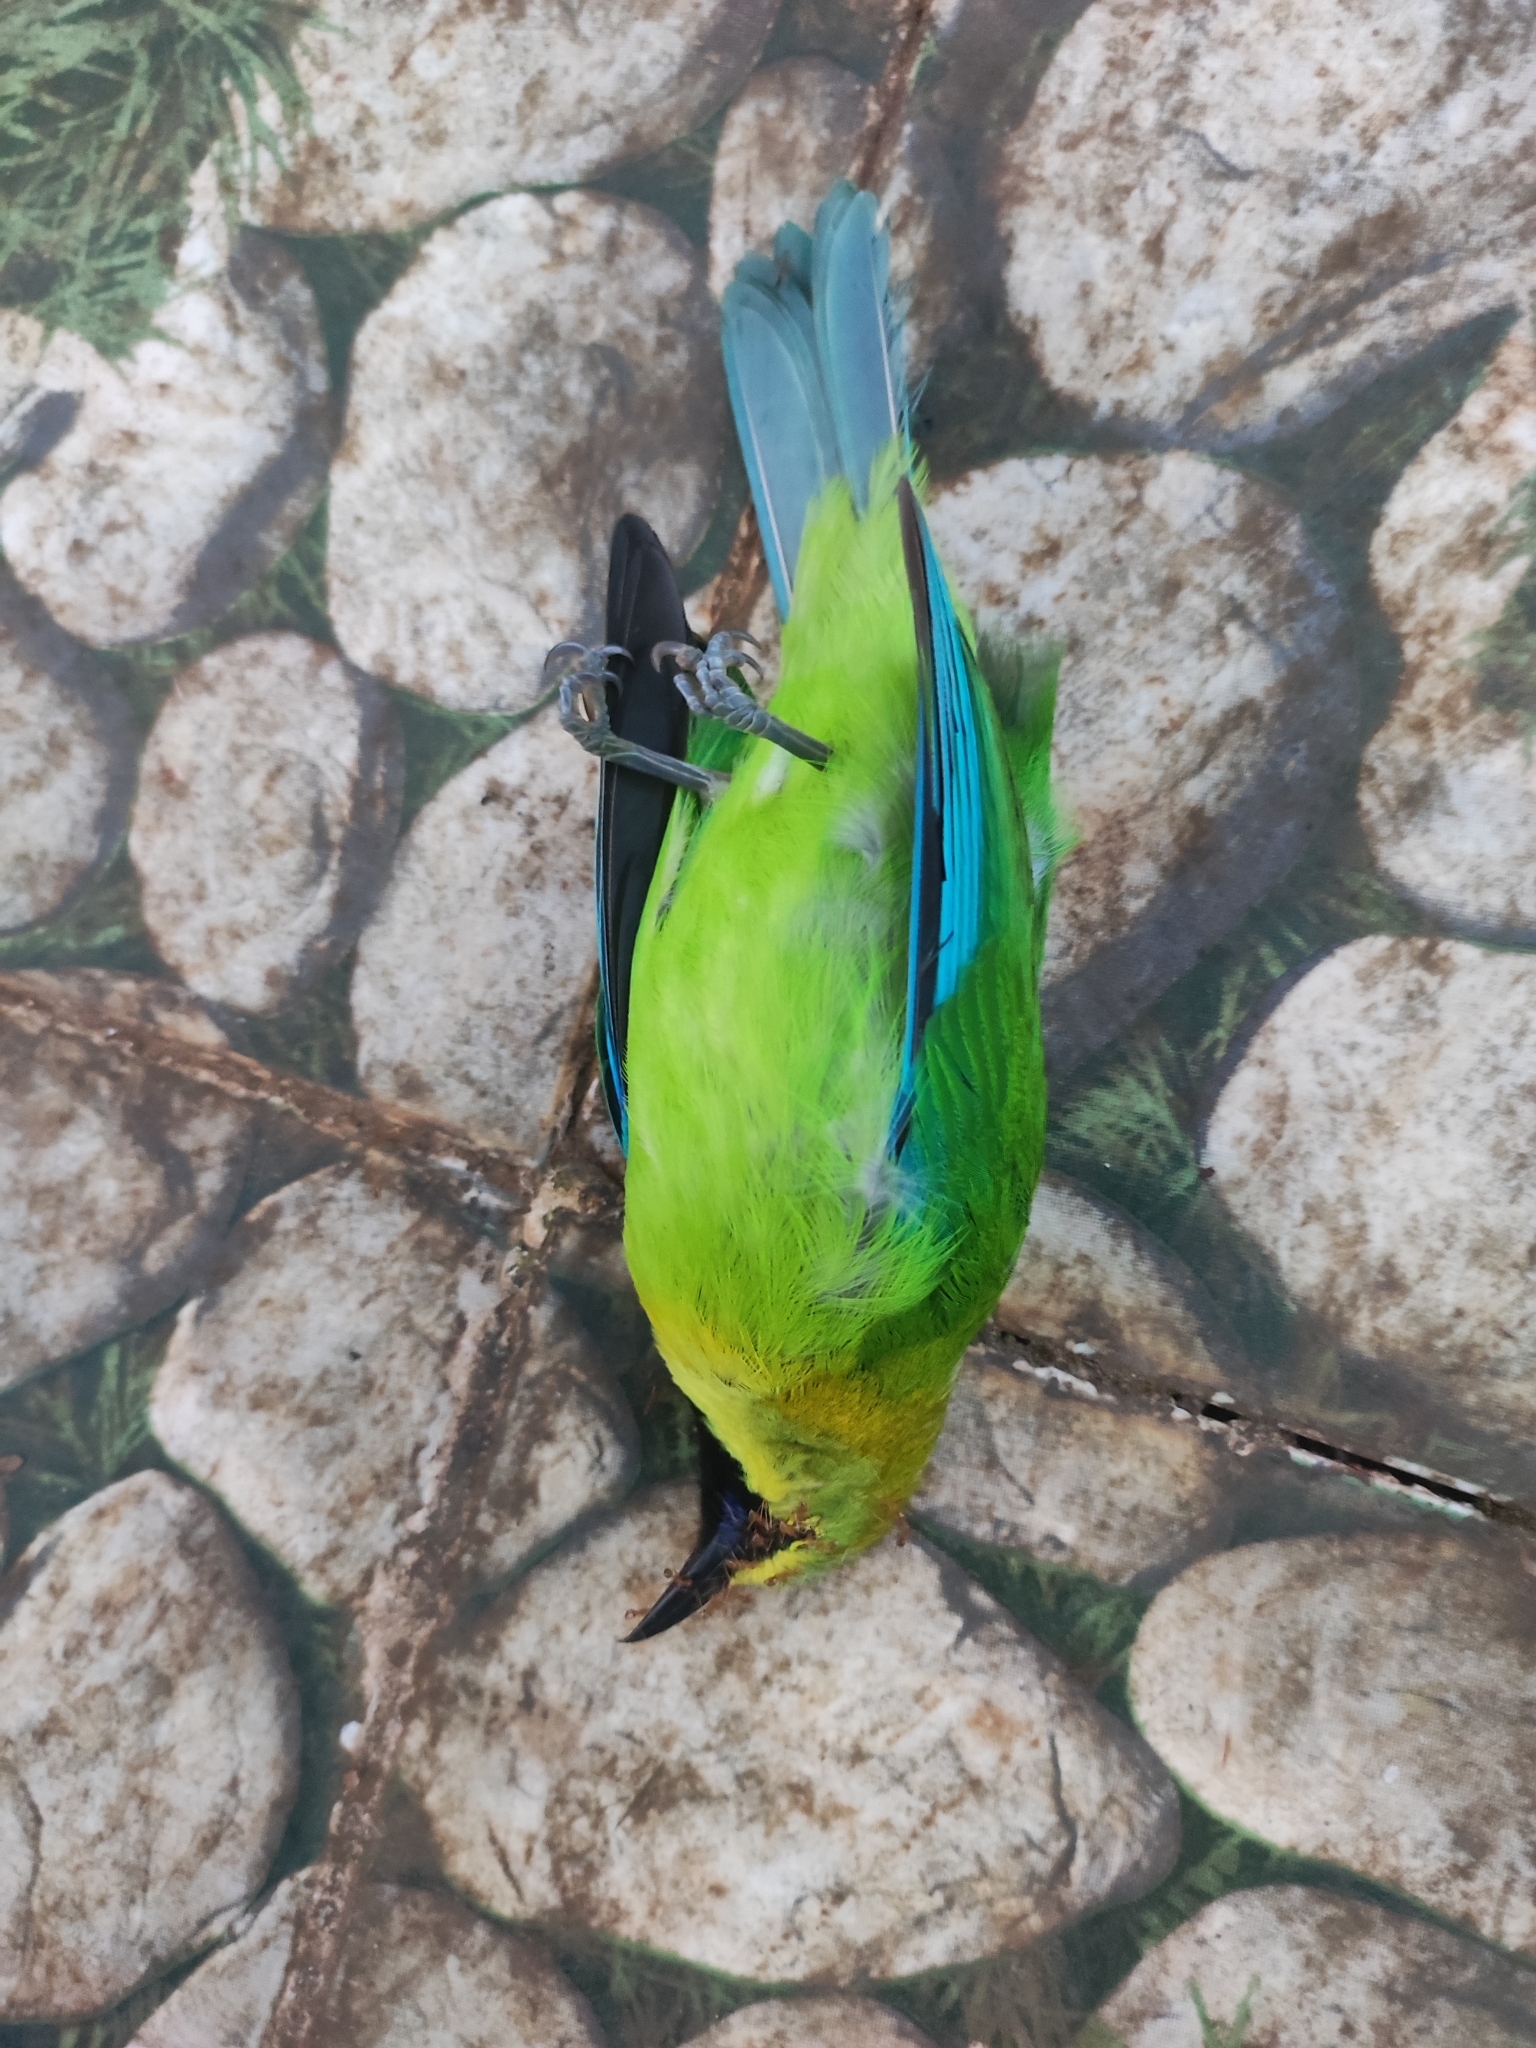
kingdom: Animalia
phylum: Chordata
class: Aves
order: Passeriformes
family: Chloropseidae
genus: Chloropsis
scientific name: Chloropsis moluccensis
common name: Blue-winged leafbird
